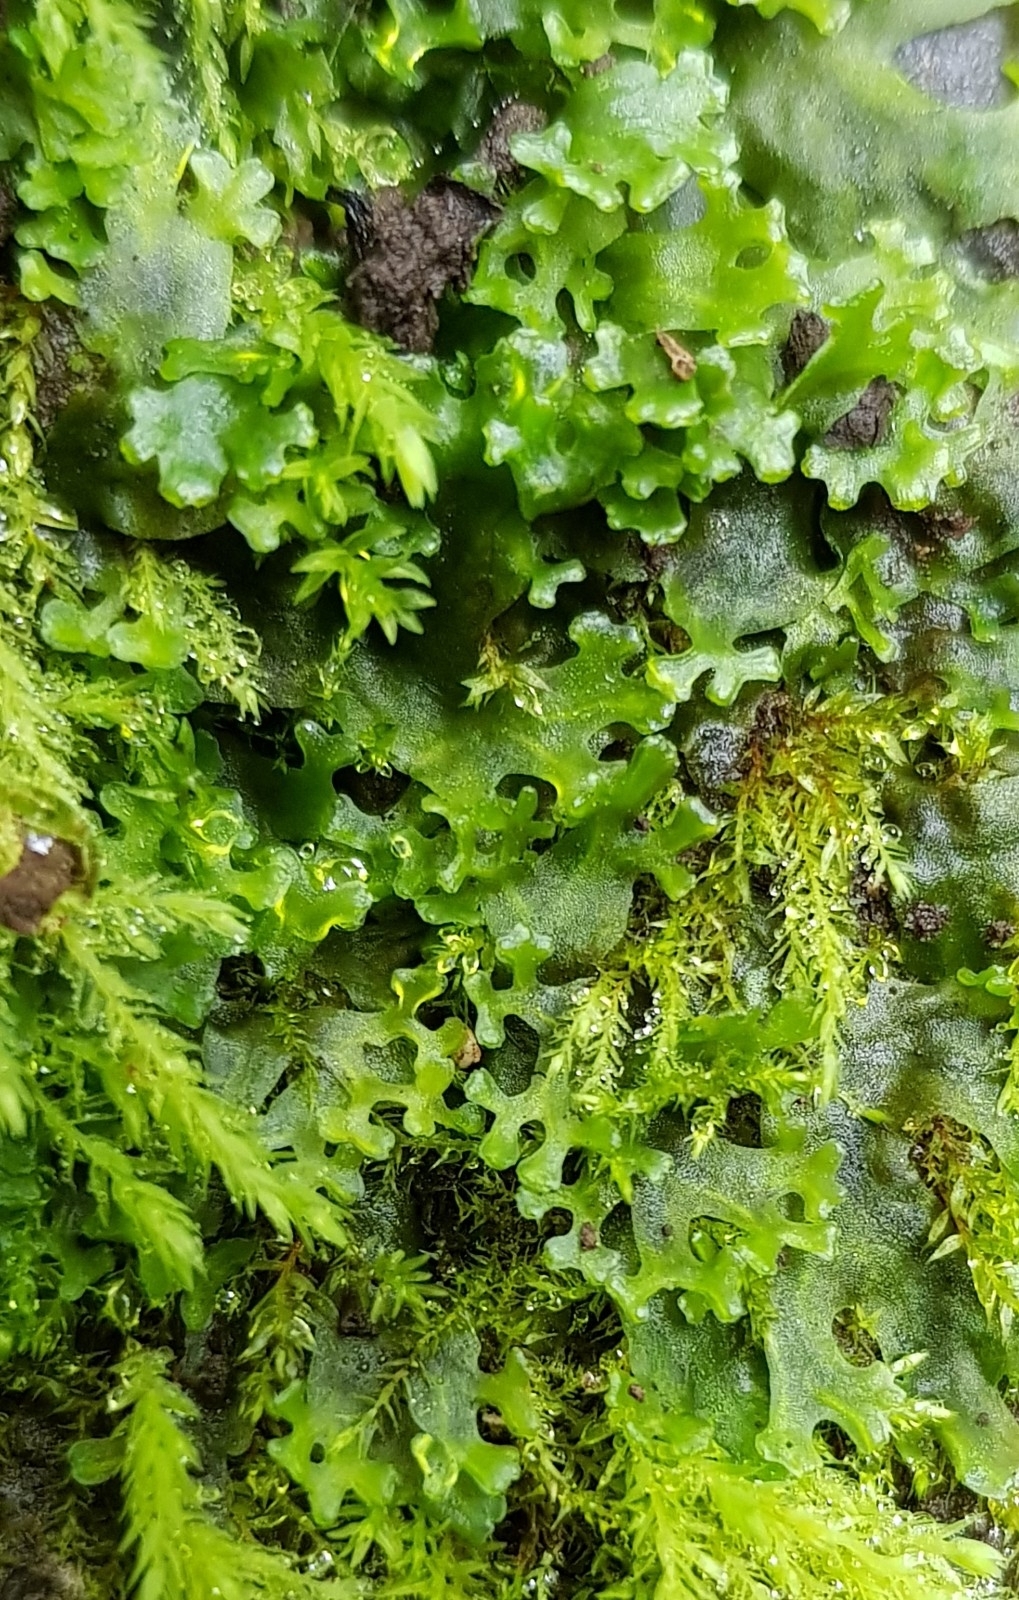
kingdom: Plantae
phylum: Marchantiophyta
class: Jungermanniopsida
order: Pelliales
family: Pelliaceae
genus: Apopellia
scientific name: Apopellia endiviifolia
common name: Endive pellia
